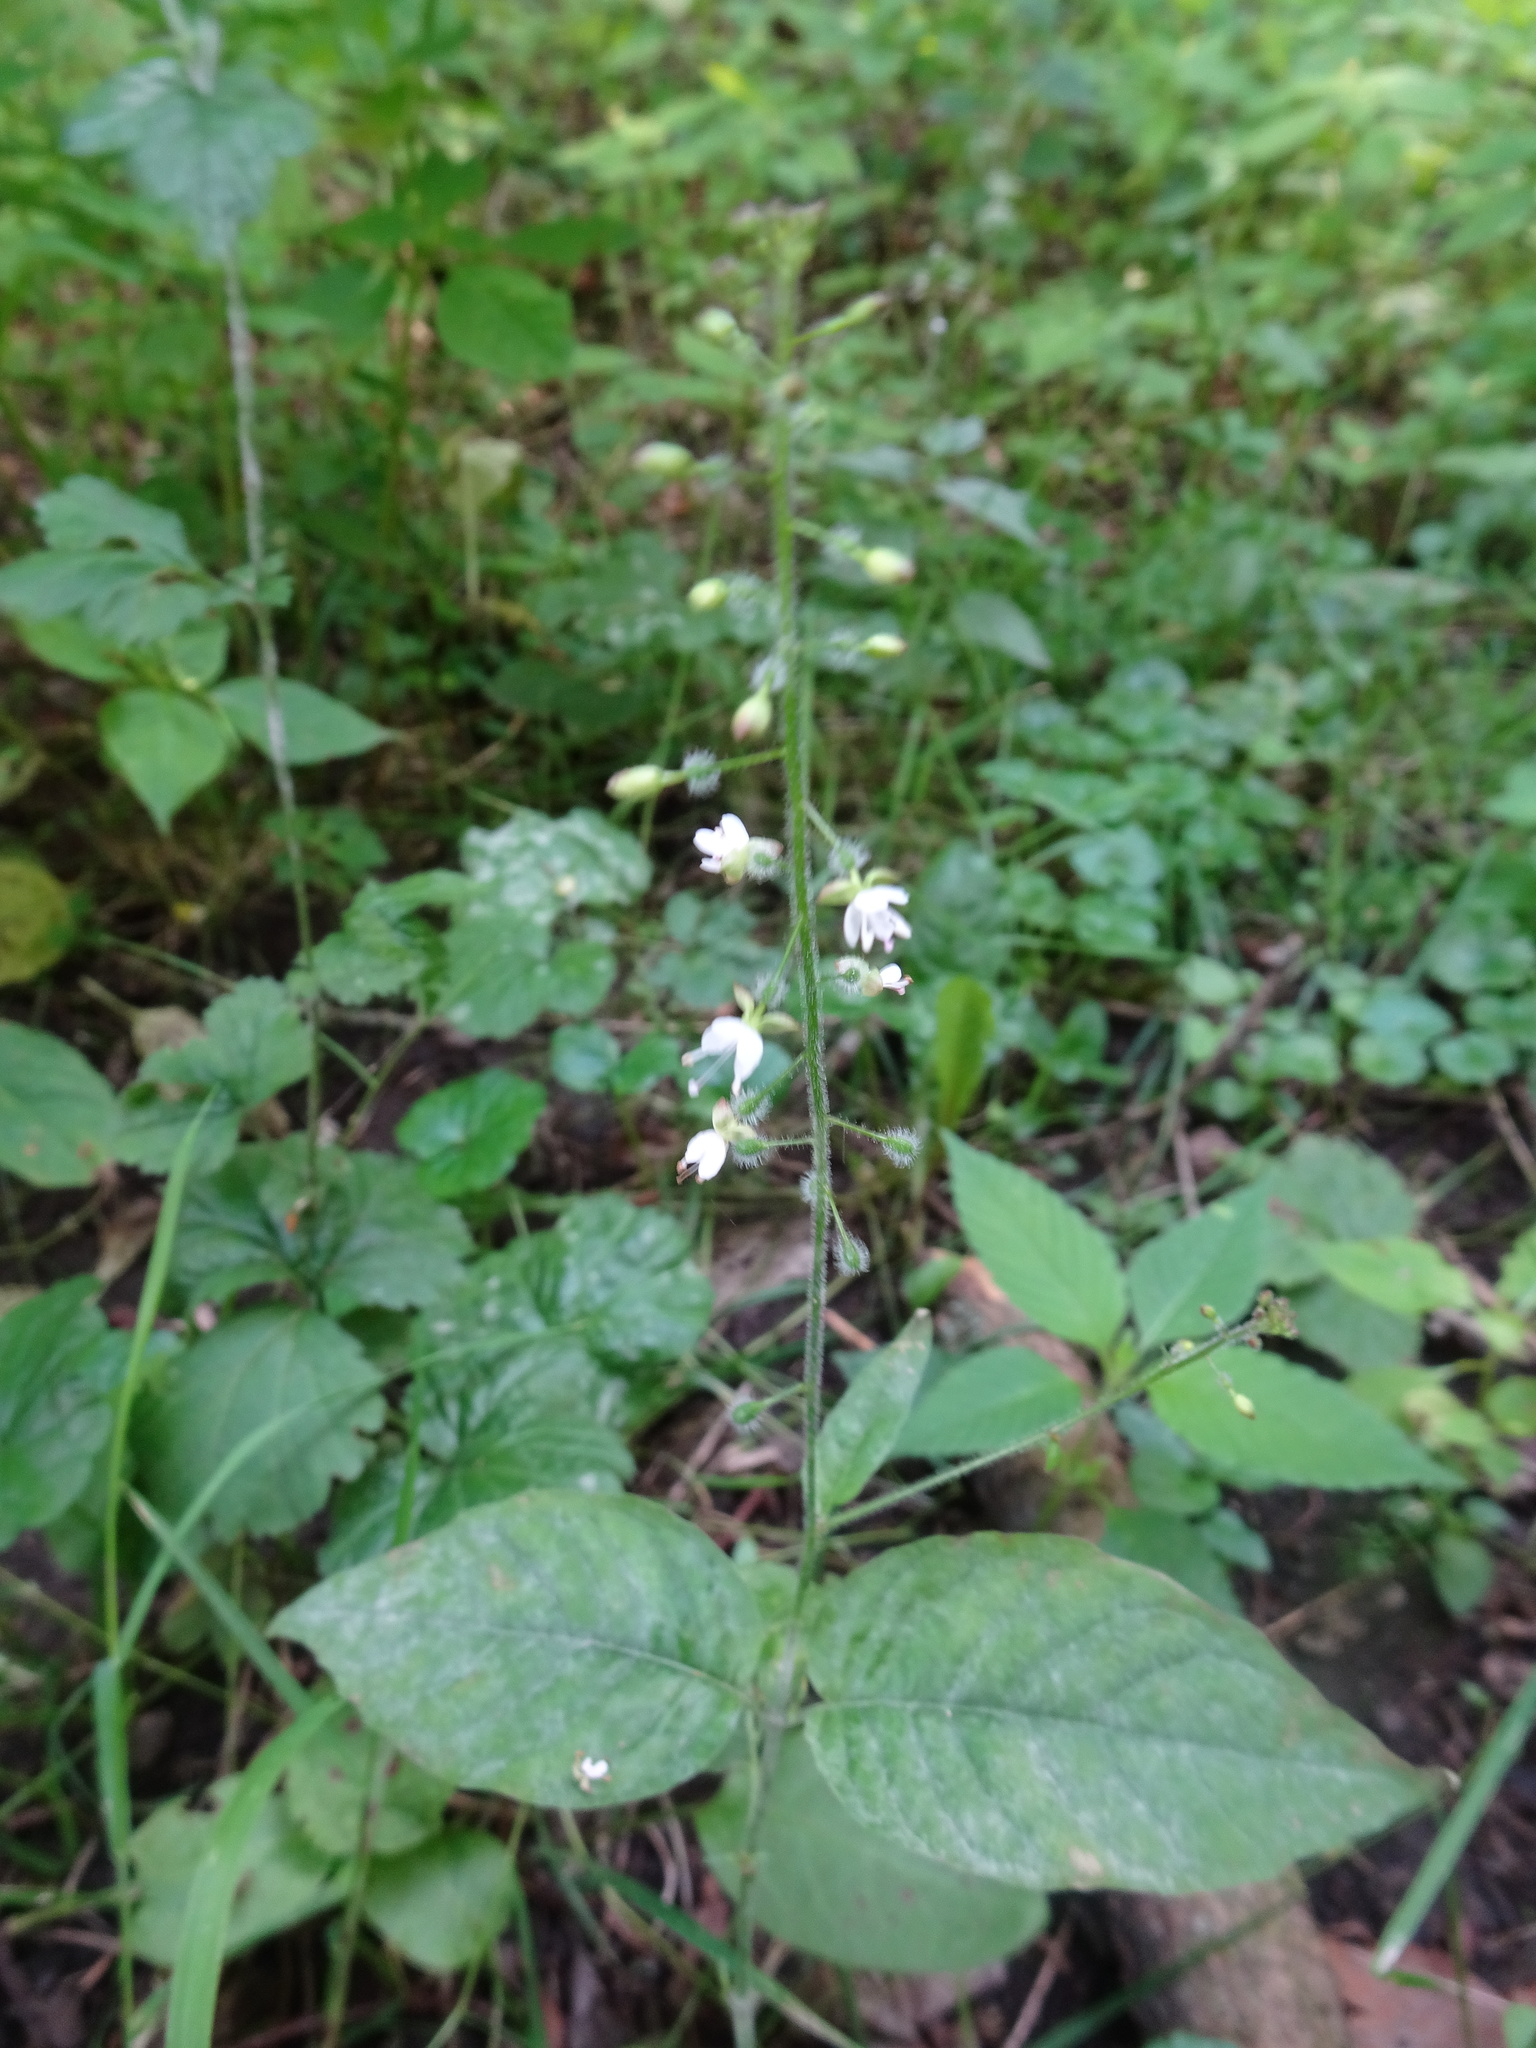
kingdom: Plantae
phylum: Tracheophyta
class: Magnoliopsida
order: Myrtales
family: Onagraceae
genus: Circaea
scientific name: Circaea lutetiana
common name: Enchanter's-nightshade
